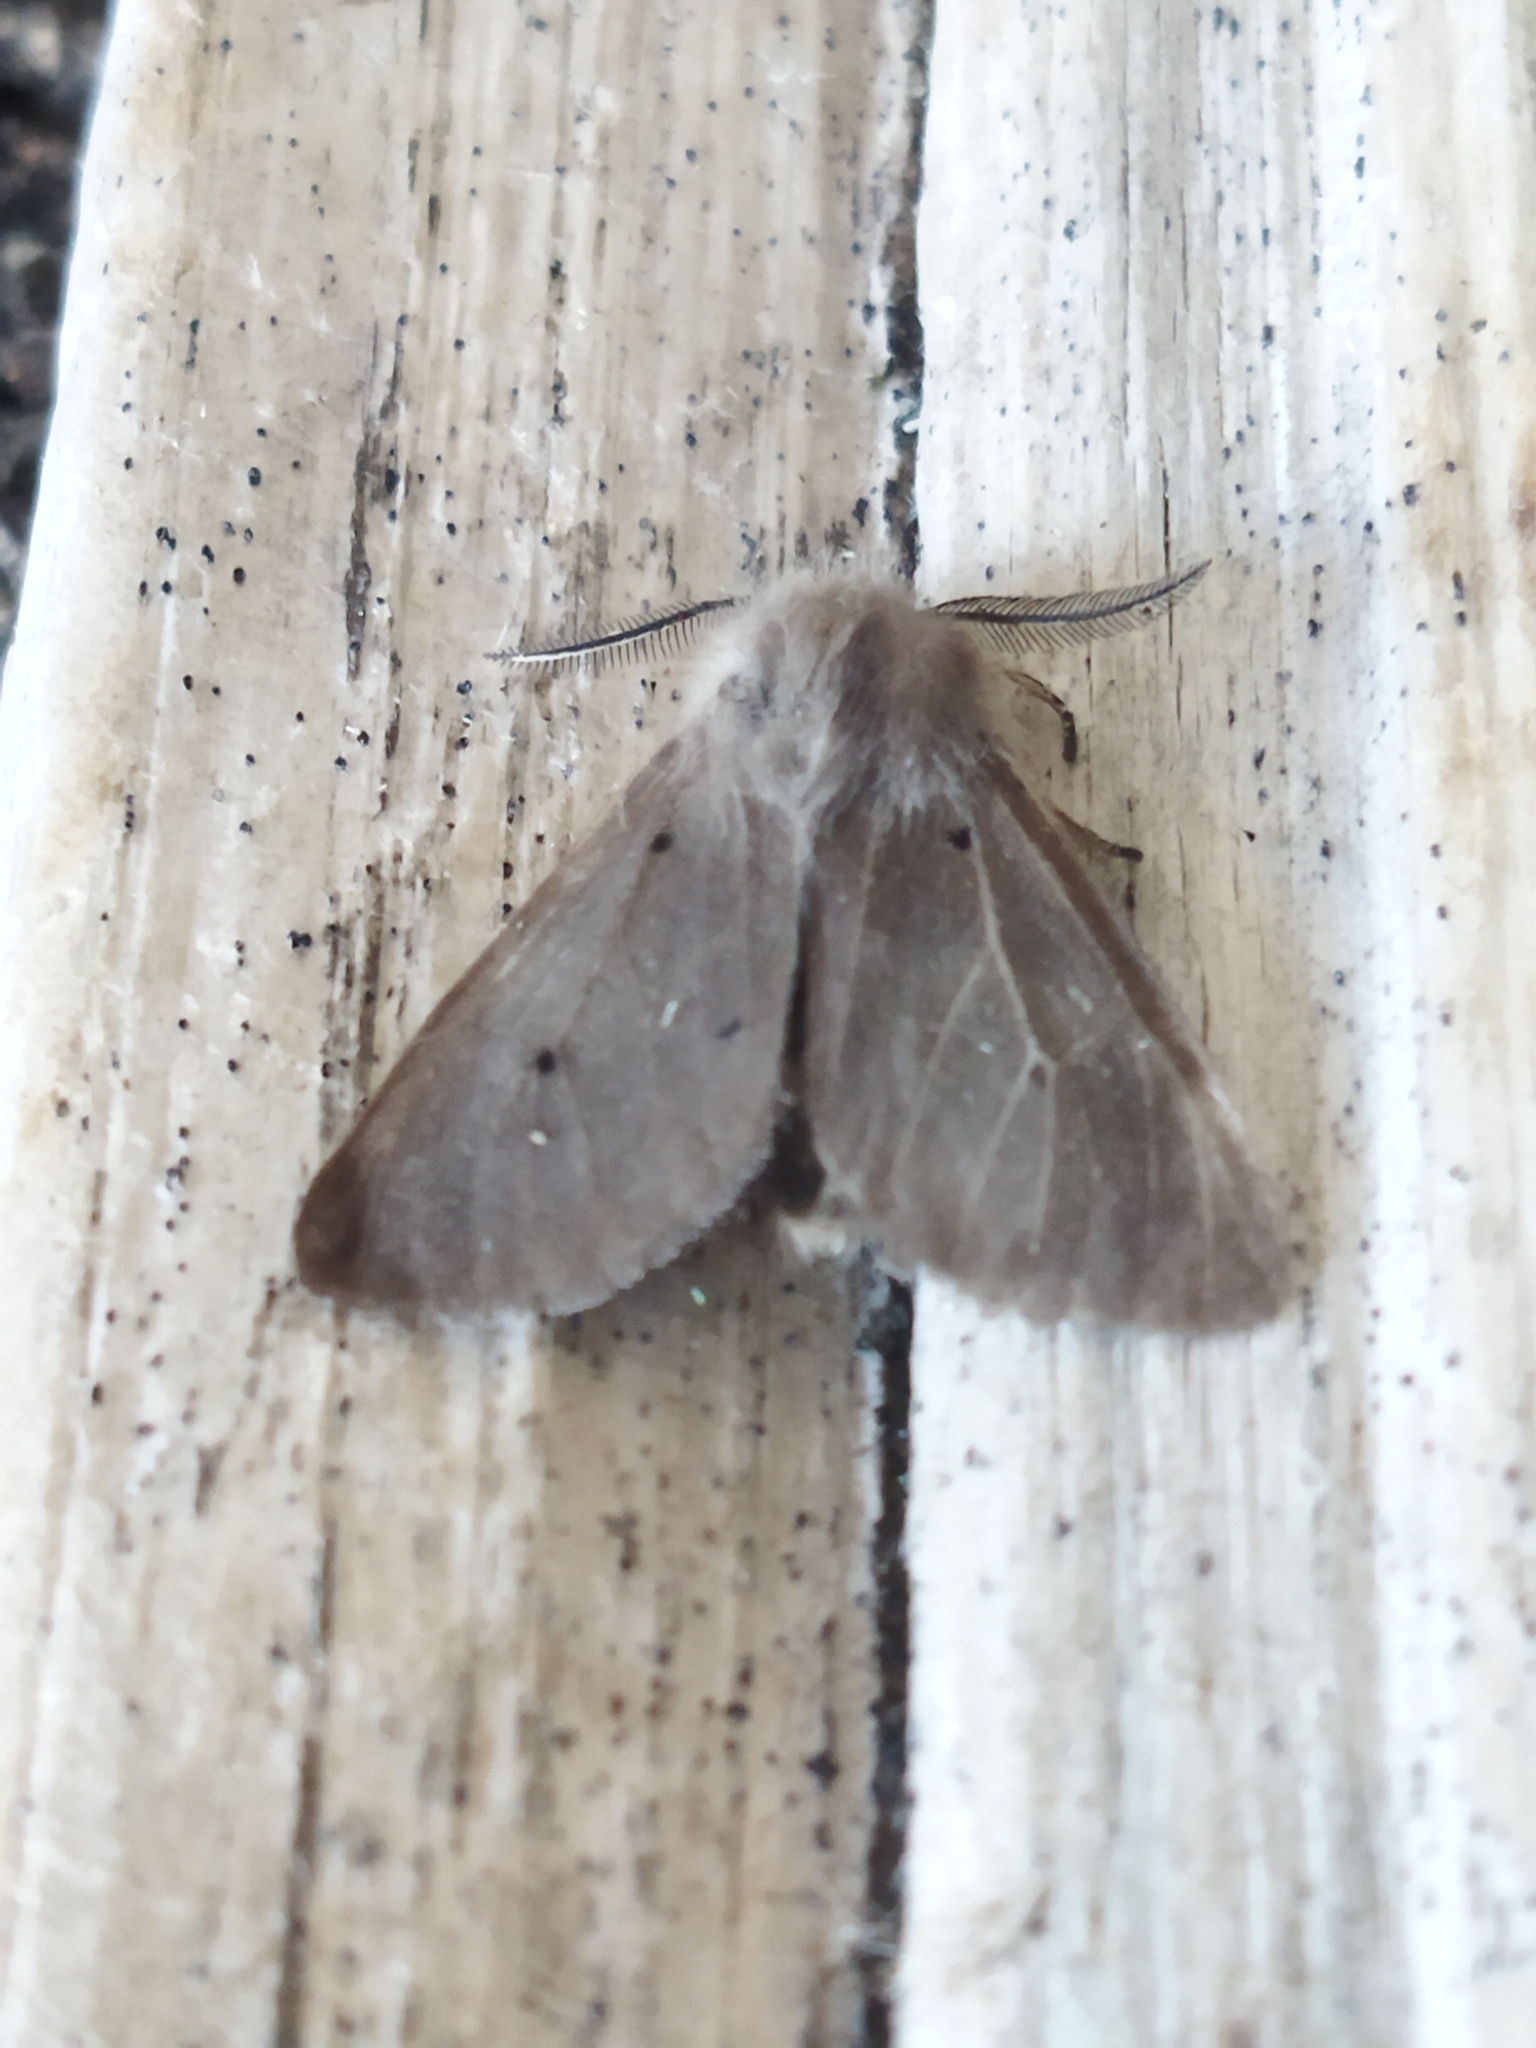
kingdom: Animalia
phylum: Arthropoda
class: Insecta
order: Lepidoptera
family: Erebidae
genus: Diaphora
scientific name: Diaphora mendica
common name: Muslin moth
